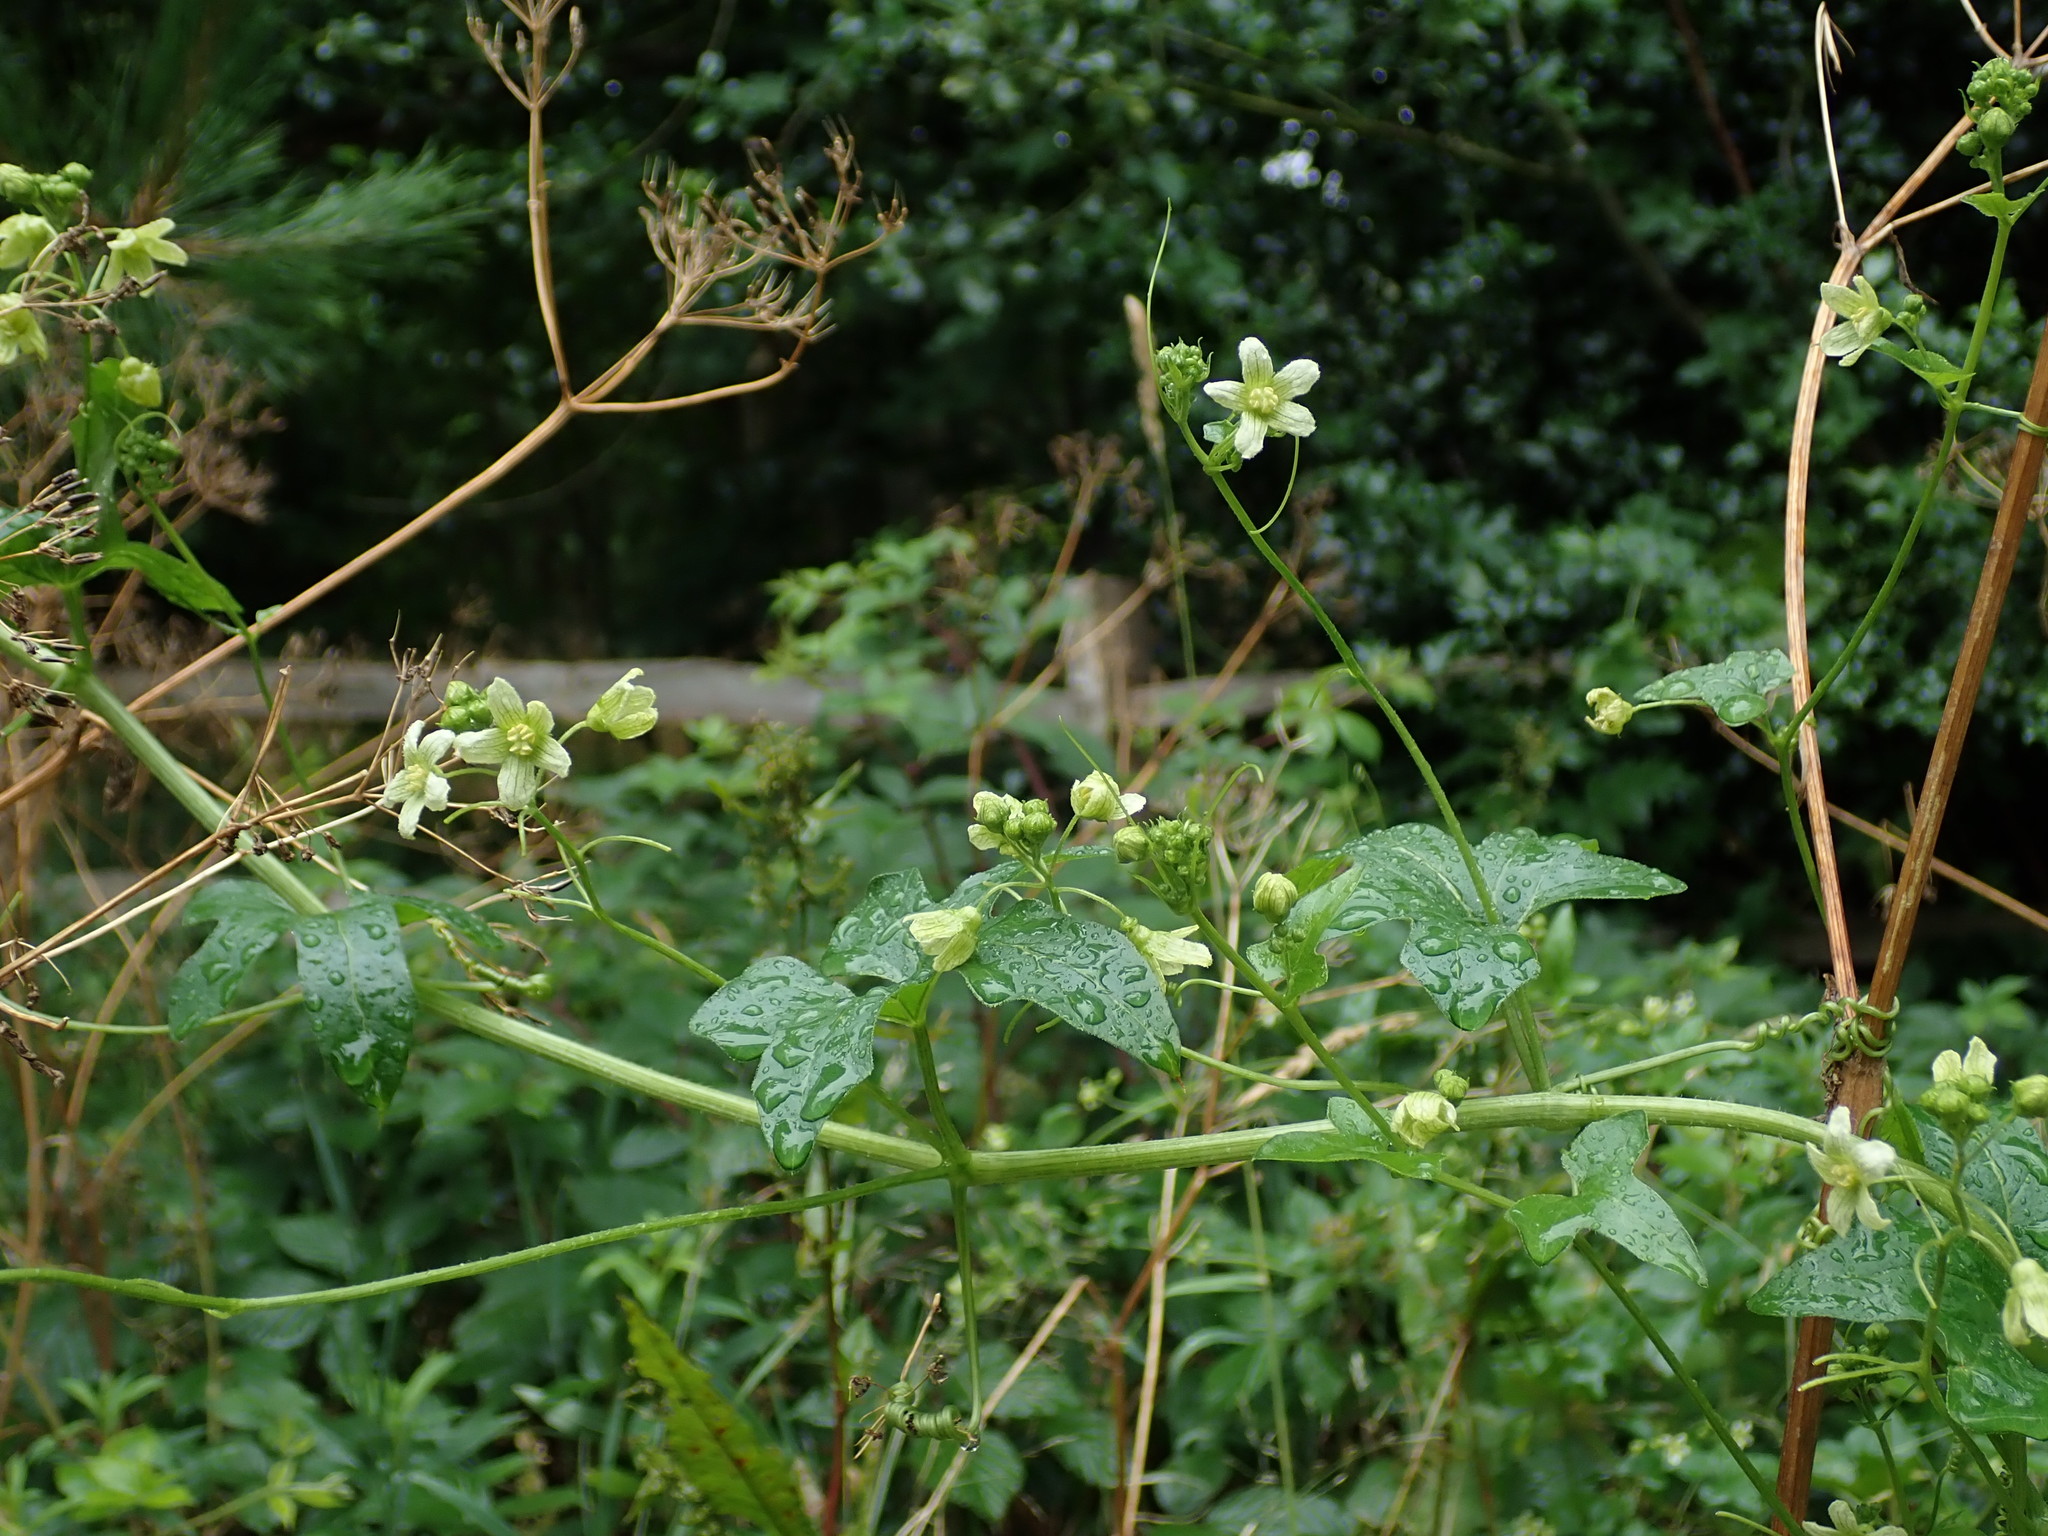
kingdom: Plantae
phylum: Tracheophyta
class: Magnoliopsida
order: Cucurbitales
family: Cucurbitaceae
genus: Bryonia
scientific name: Bryonia dioica
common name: White bryony
